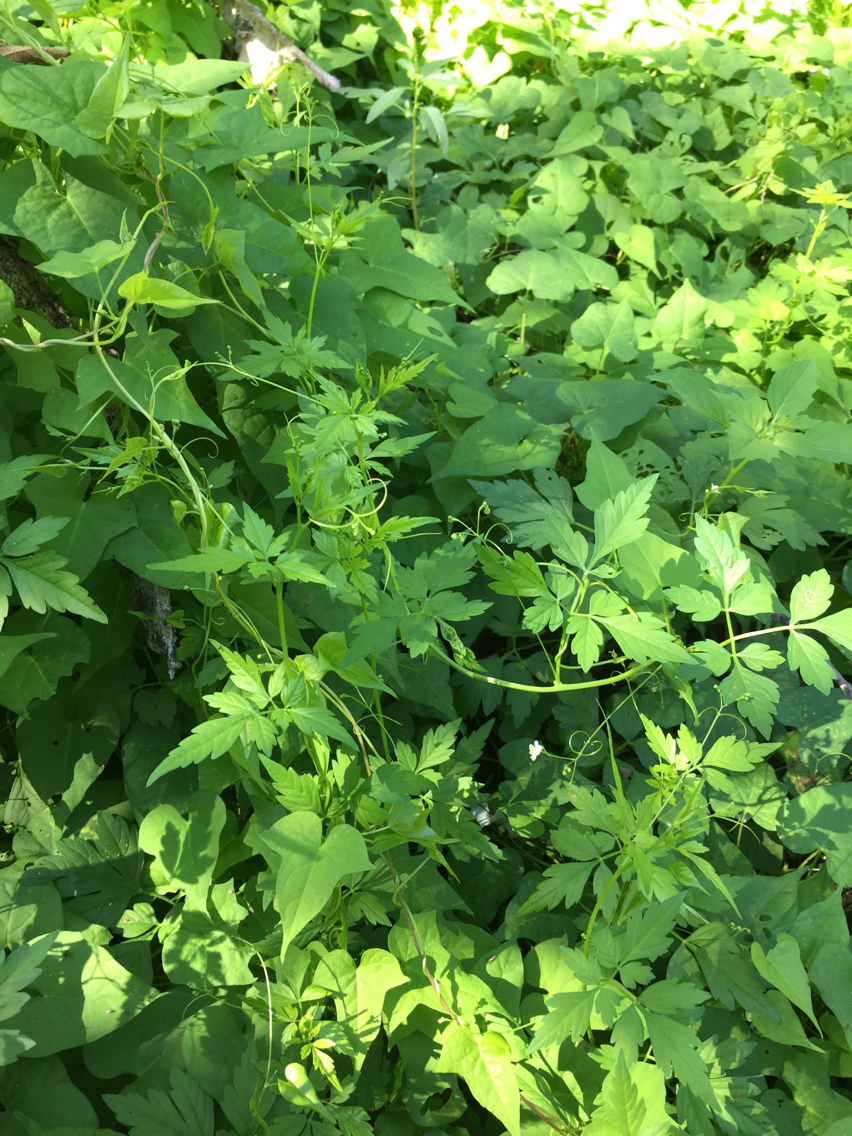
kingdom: Plantae
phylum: Tracheophyta
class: Magnoliopsida
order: Sapindales
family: Sapindaceae
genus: Cardiospermum
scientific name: Cardiospermum halicacabum
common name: Balloon vine
